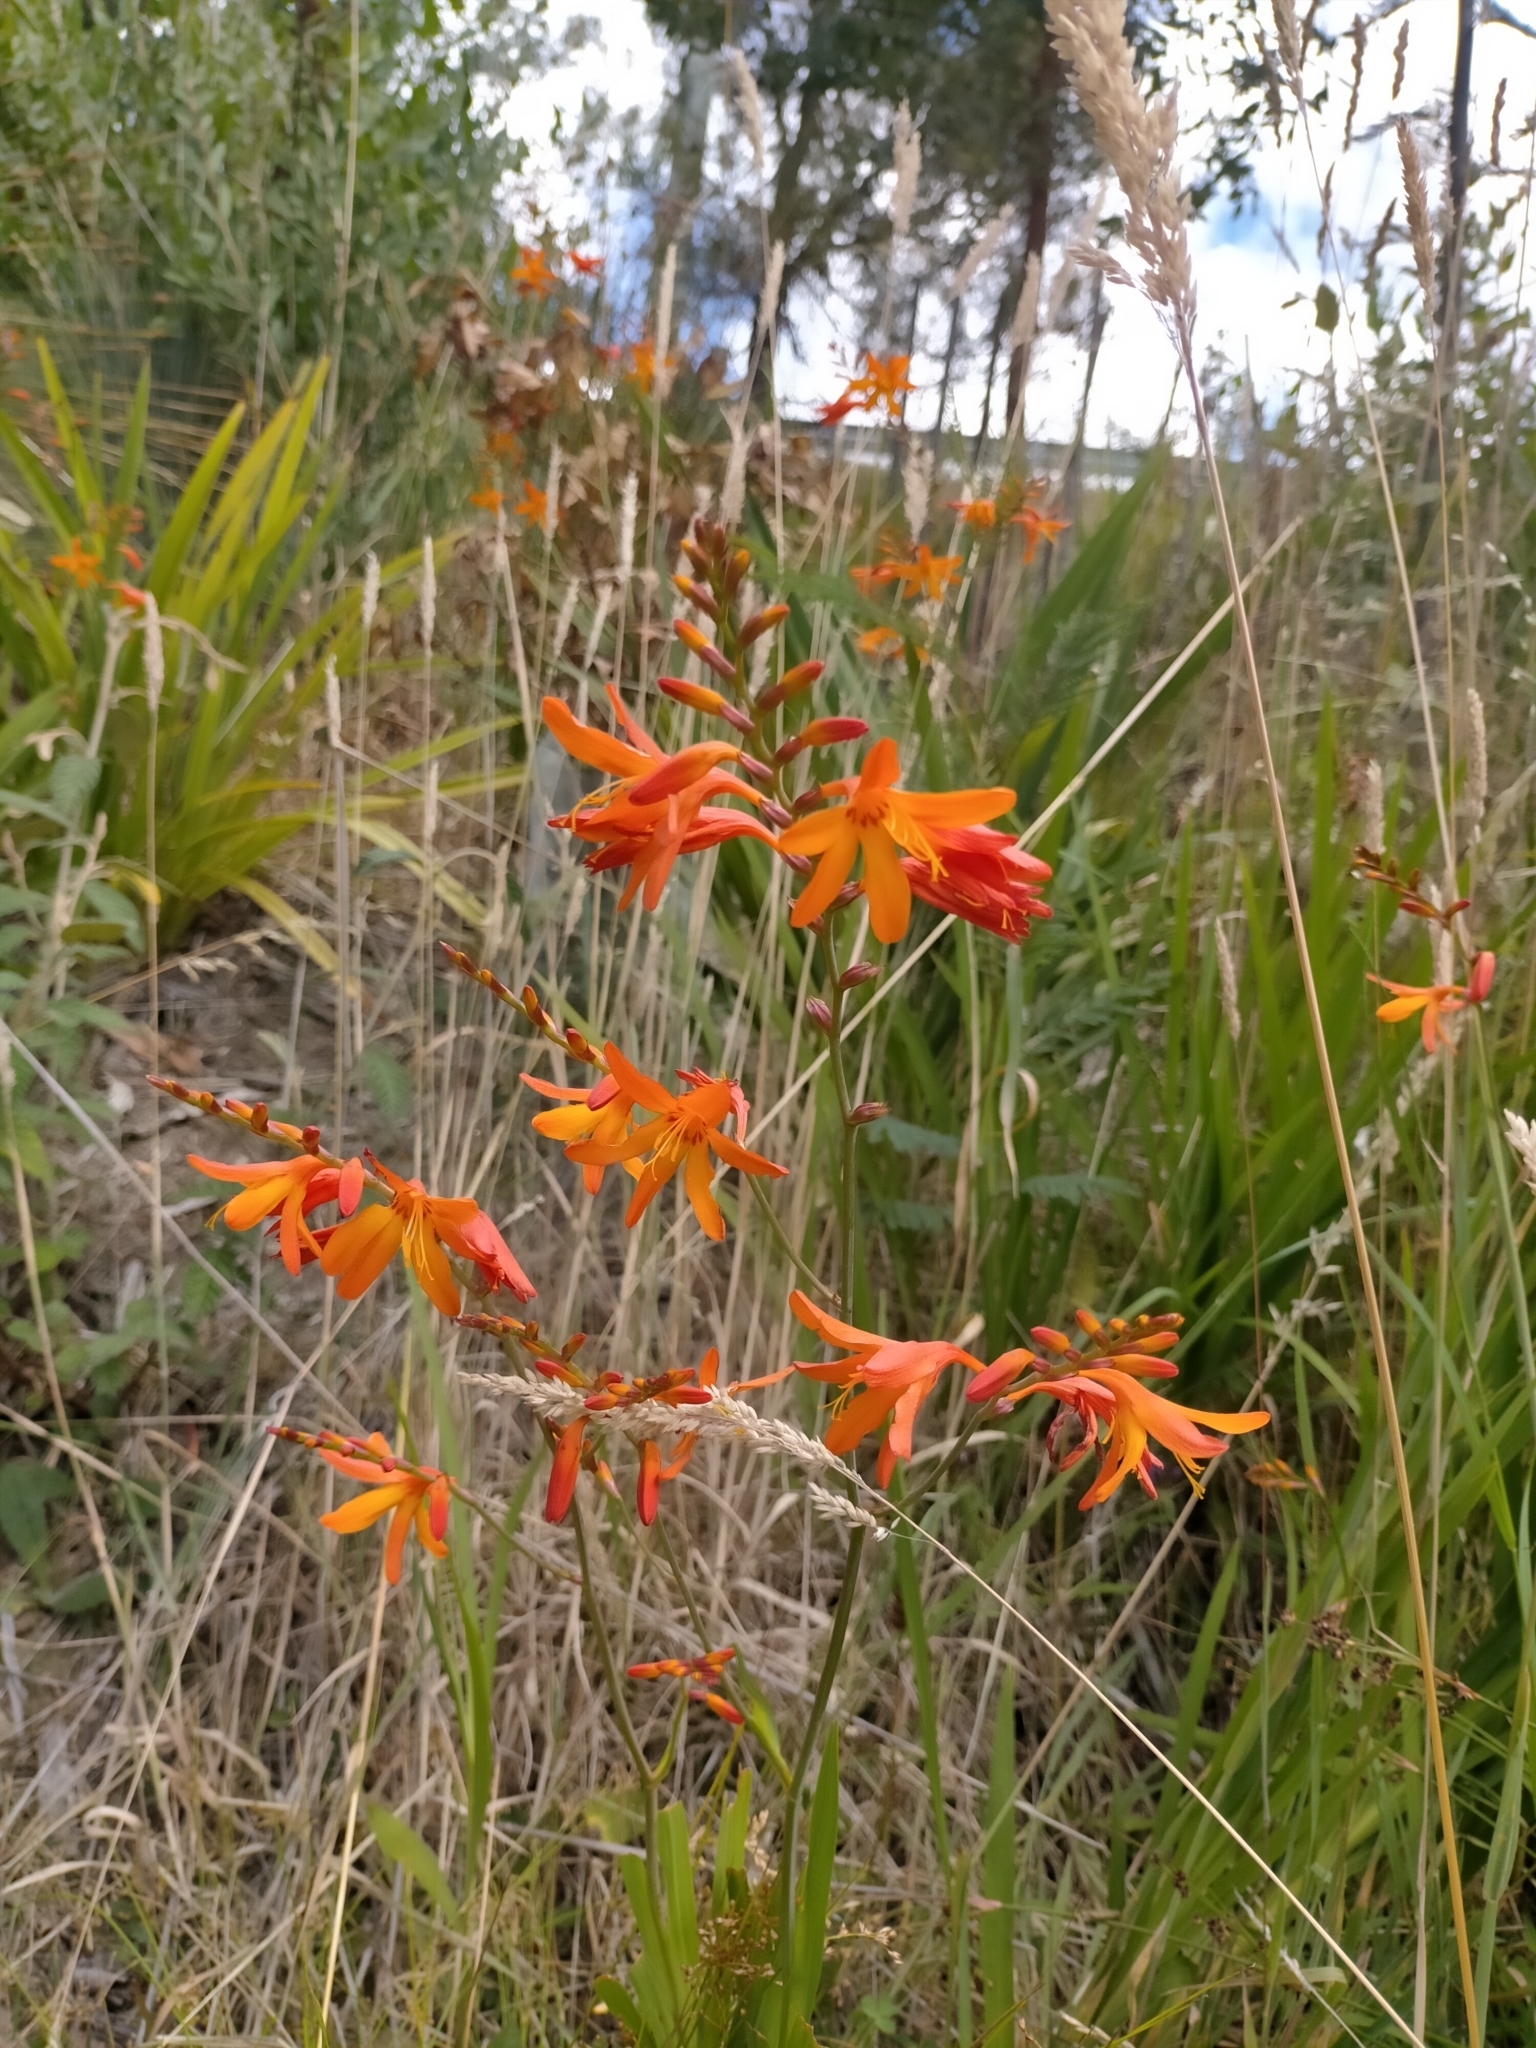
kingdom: Plantae
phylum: Tracheophyta
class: Liliopsida
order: Asparagales
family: Iridaceae
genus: Crocosmia
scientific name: Crocosmia crocosmiiflora
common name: Montbretia
